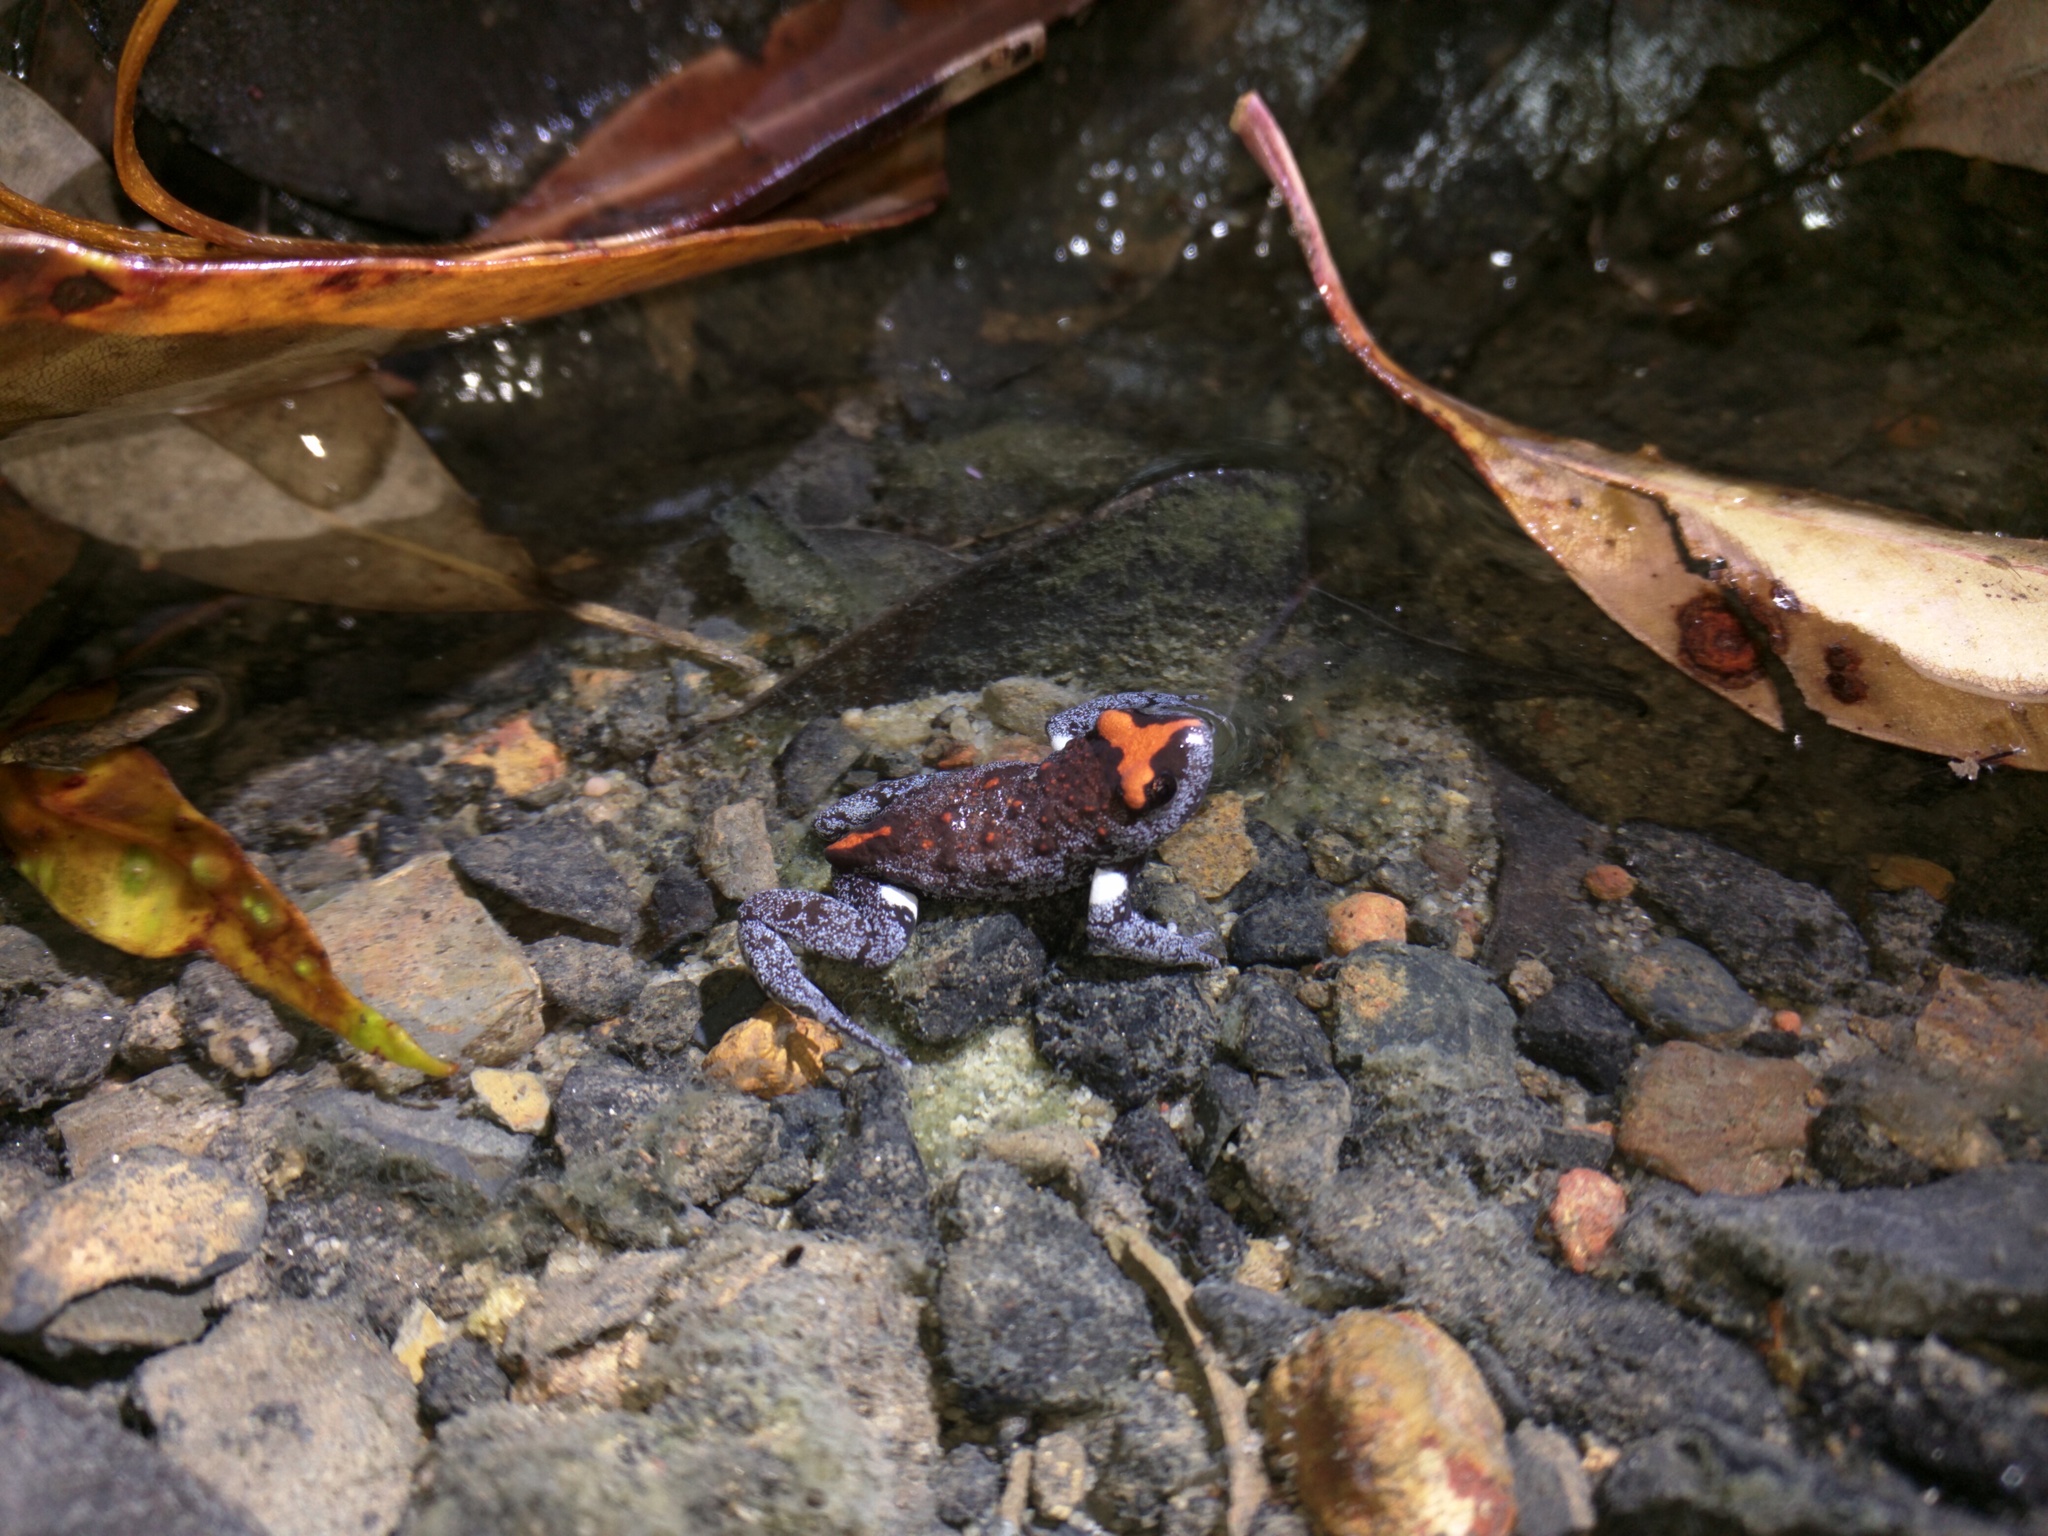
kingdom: Animalia
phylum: Chordata
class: Amphibia
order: Anura
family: Myobatrachidae
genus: Pseudophryne
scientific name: Pseudophryne australis
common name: Red-crowned toadlet
